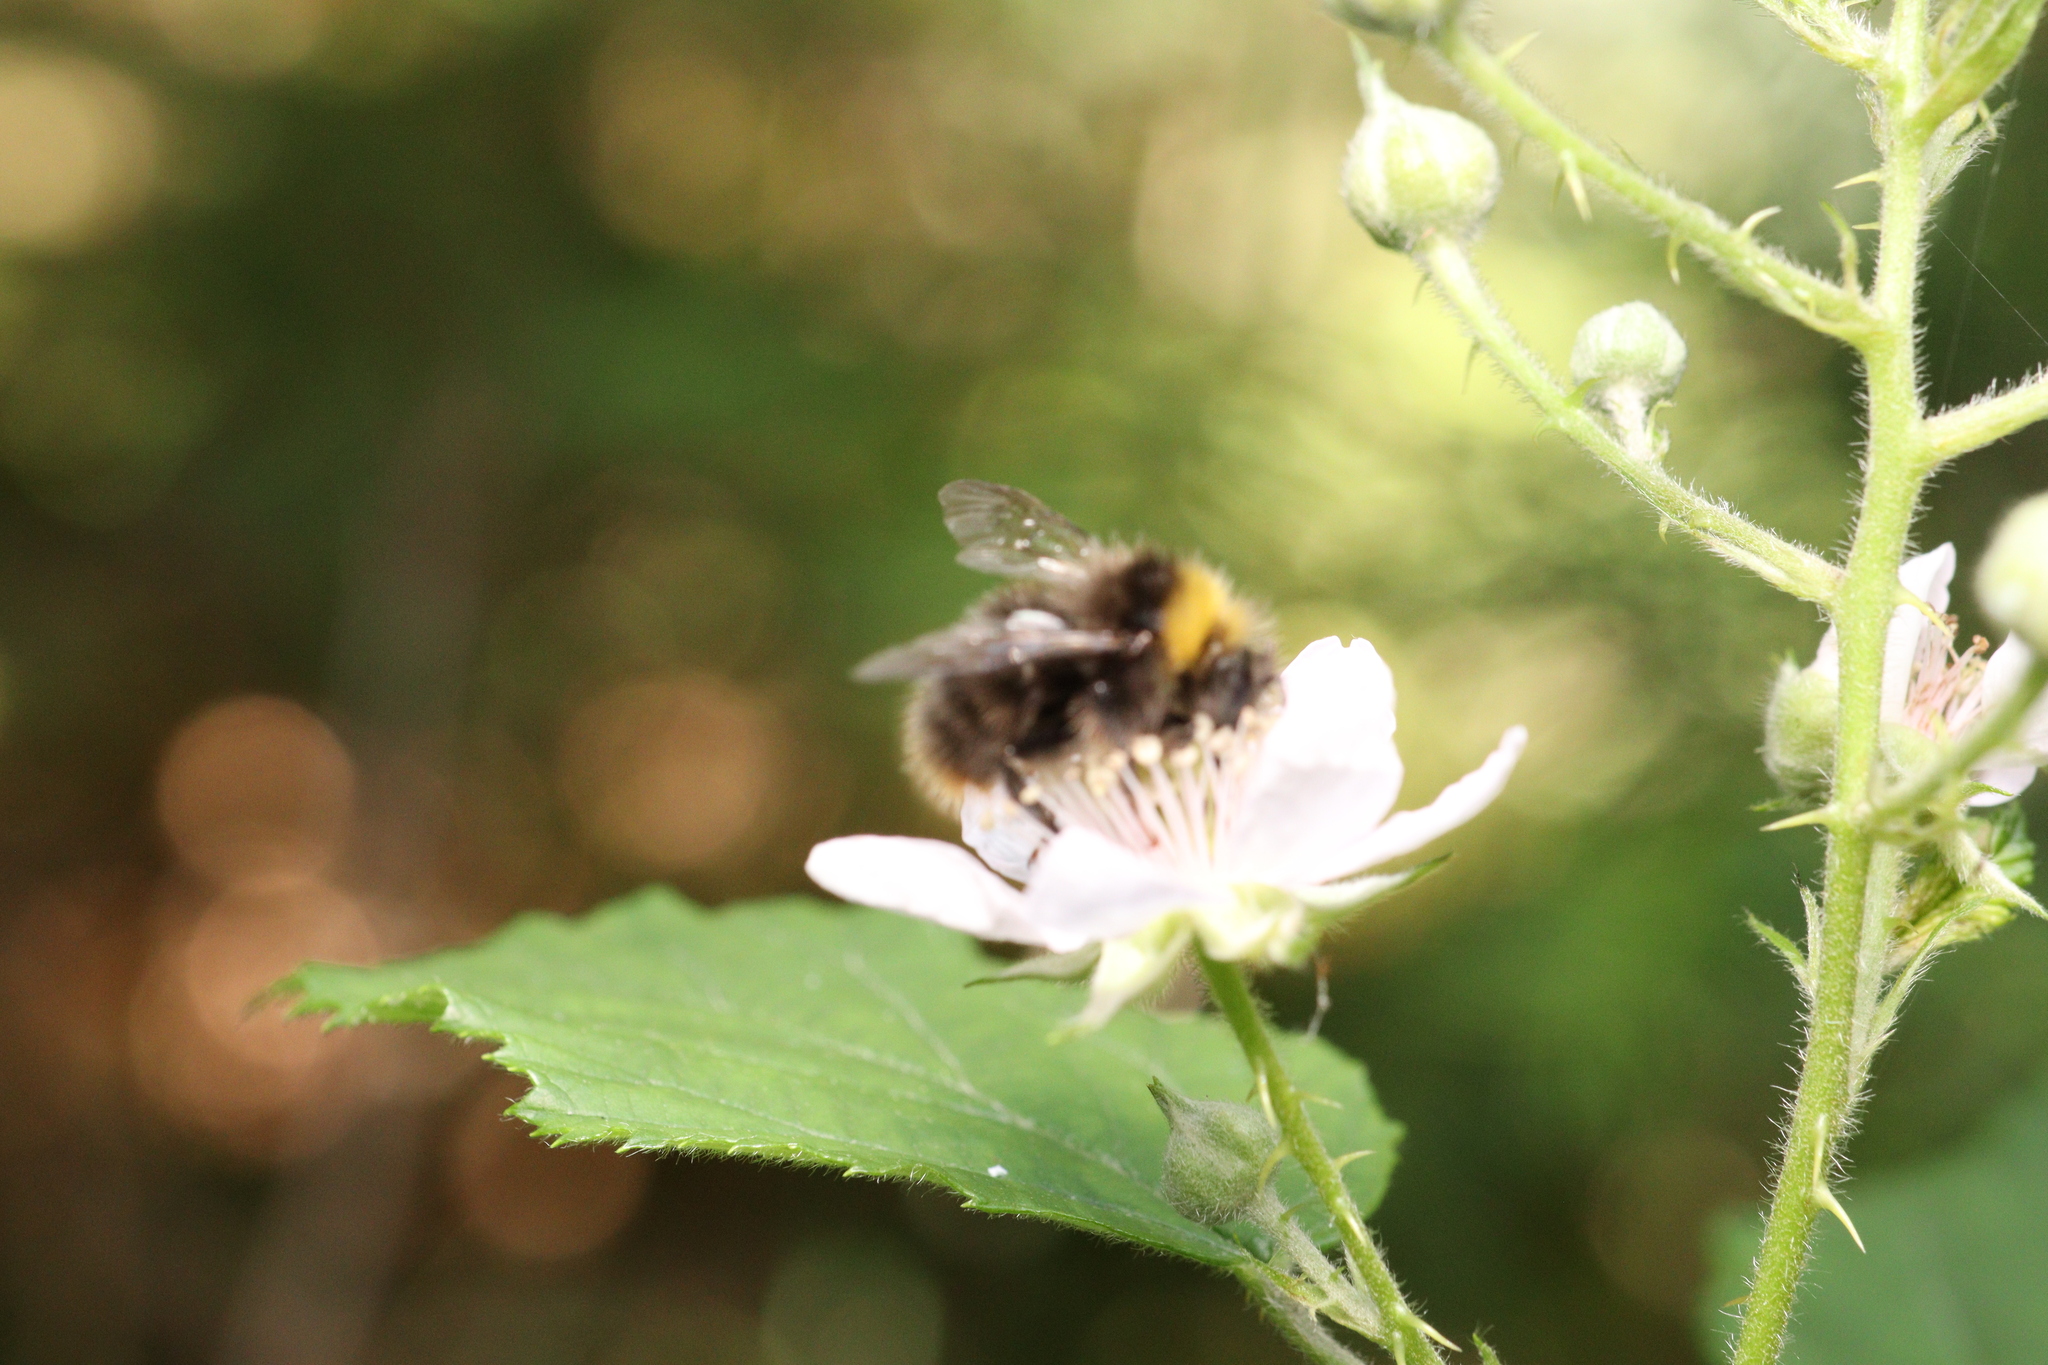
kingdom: Animalia
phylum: Arthropoda
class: Insecta
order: Hymenoptera
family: Apidae
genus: Bombus
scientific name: Bombus pratorum
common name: Early humble-bee
